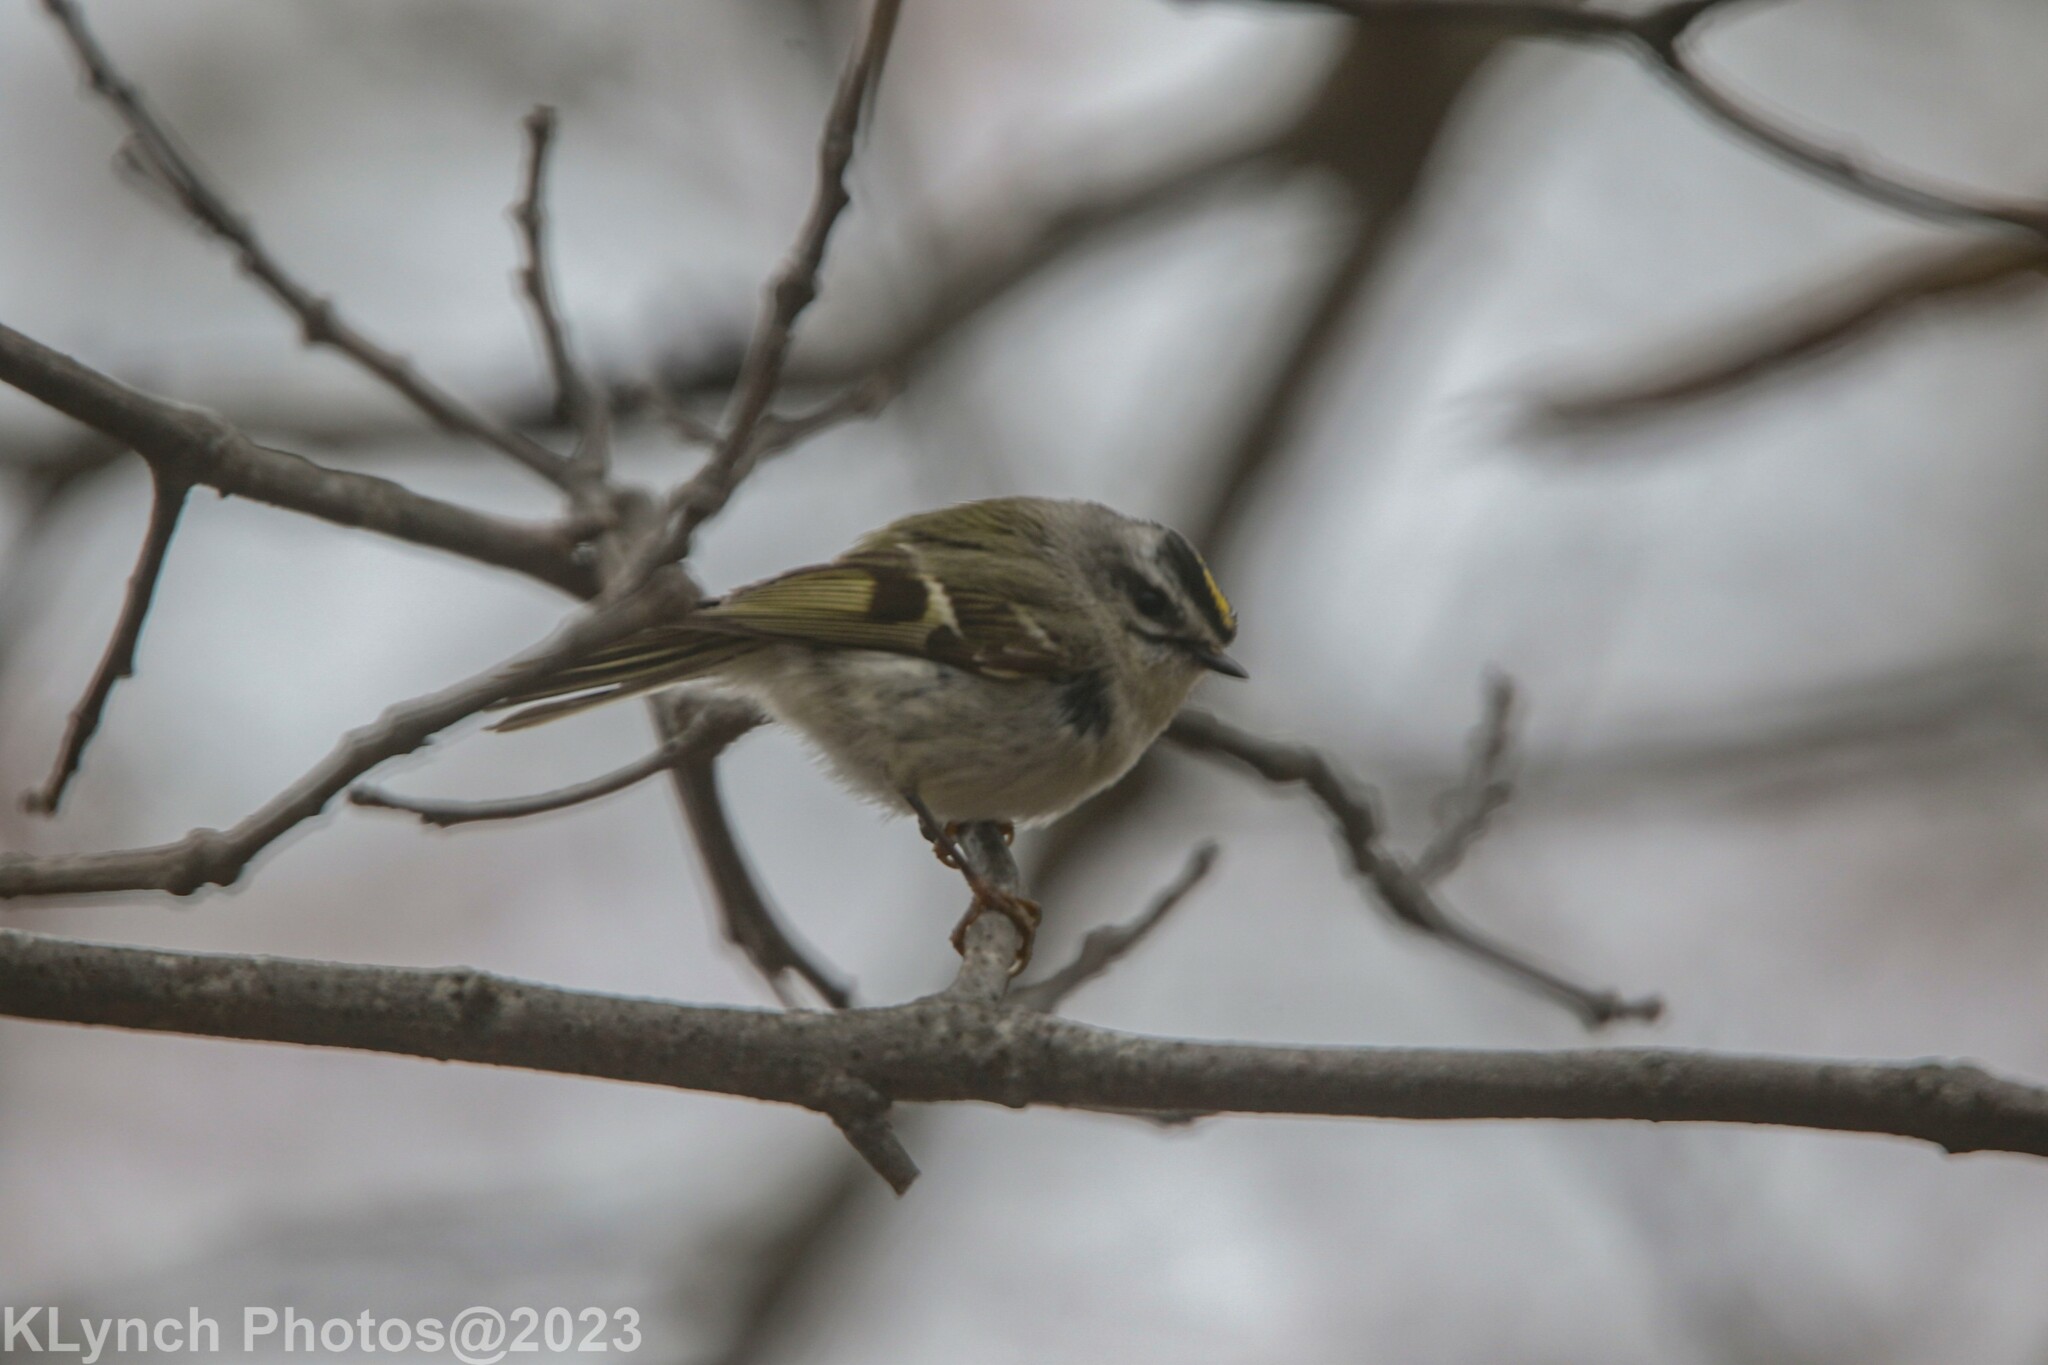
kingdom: Animalia
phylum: Chordata
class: Aves
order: Passeriformes
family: Regulidae
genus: Regulus
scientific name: Regulus satrapa
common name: Golden-crowned kinglet
